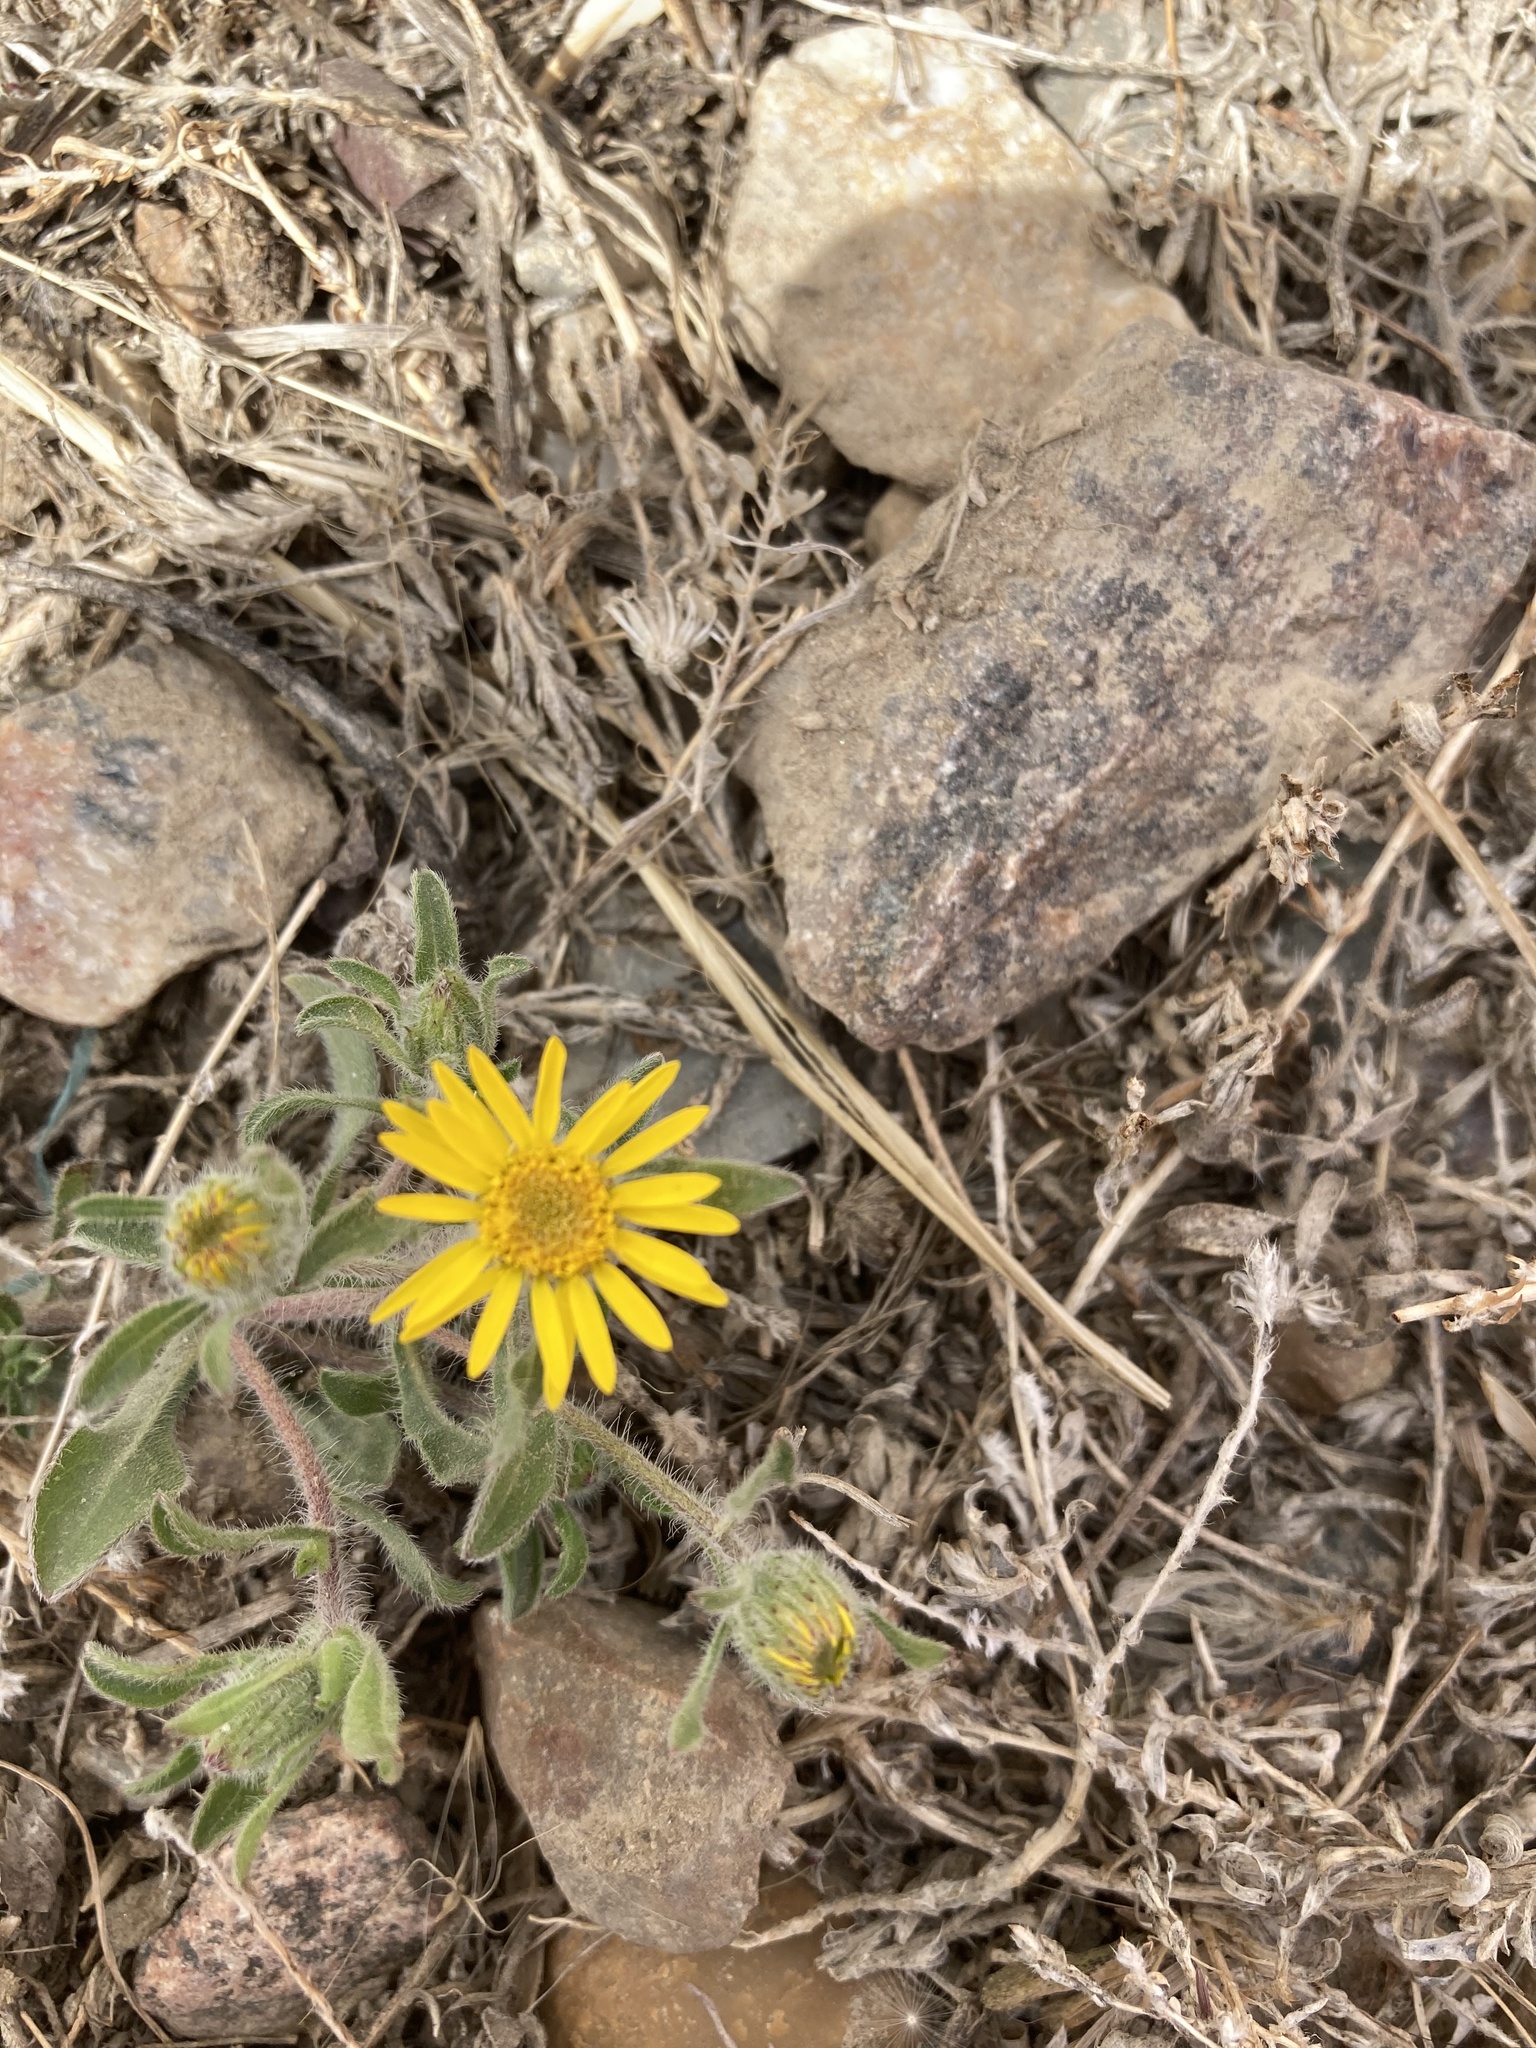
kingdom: Plantae
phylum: Tracheophyta
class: Magnoliopsida
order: Asterales
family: Asteraceae
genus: Heterotheca
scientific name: Heterotheca villosa
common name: Hairy false goldenaster
